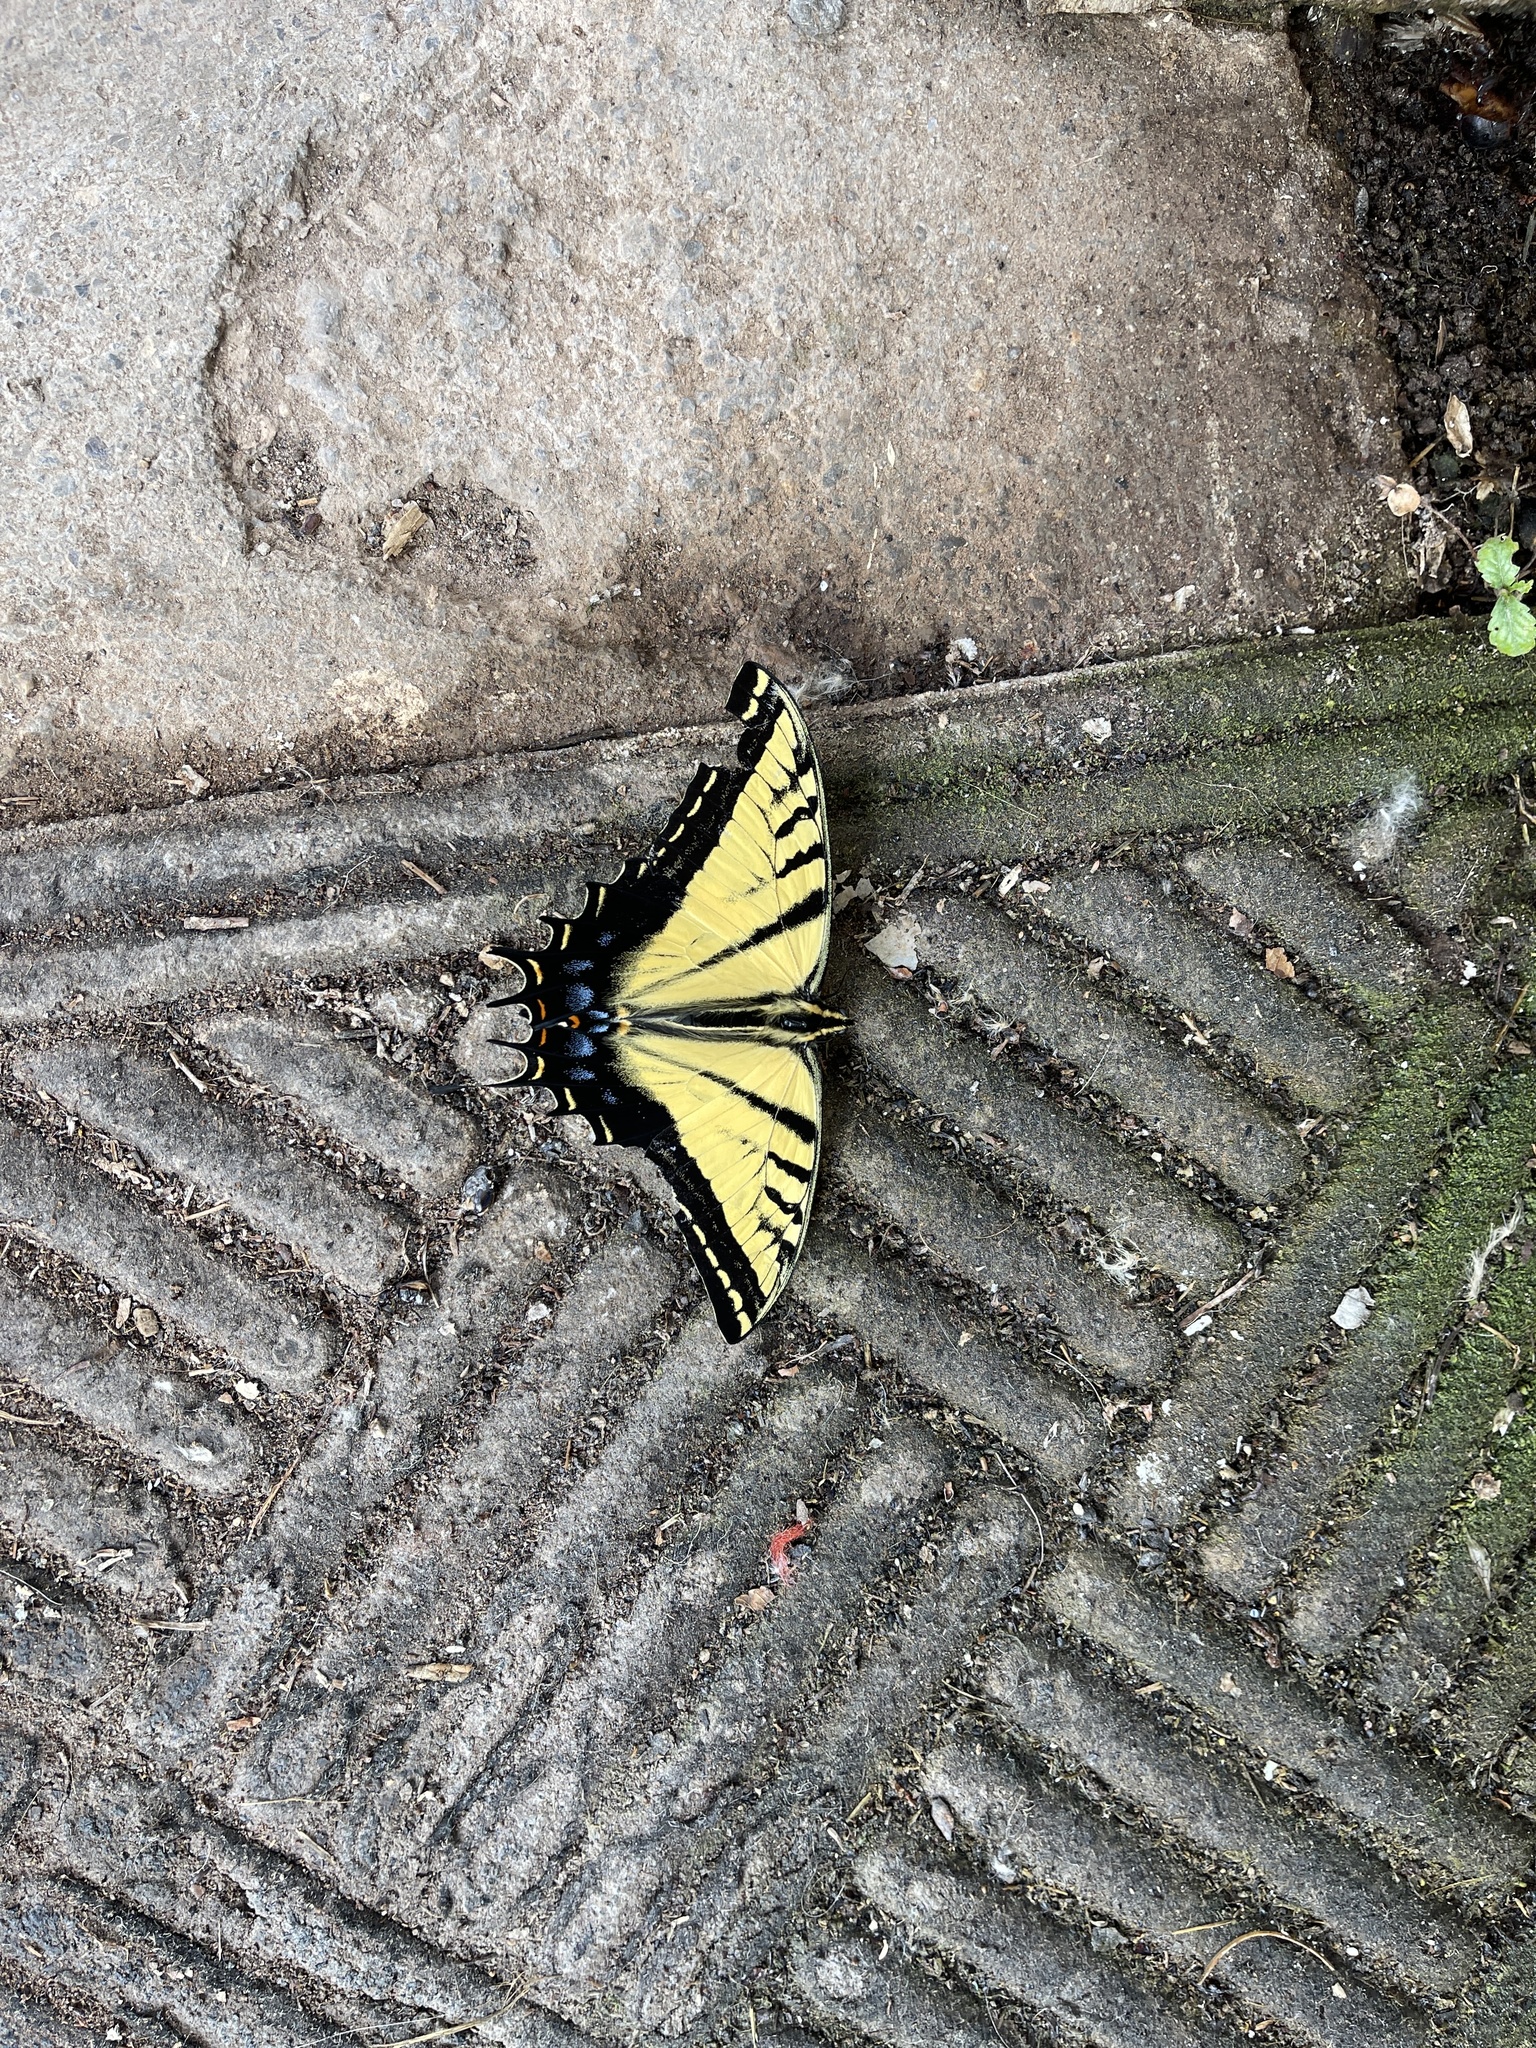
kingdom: Animalia
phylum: Arthropoda
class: Insecta
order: Lepidoptera
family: Papilionidae
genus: Papilio
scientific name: Papilio multicaudata
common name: Two-tailed tiger swallowtail
